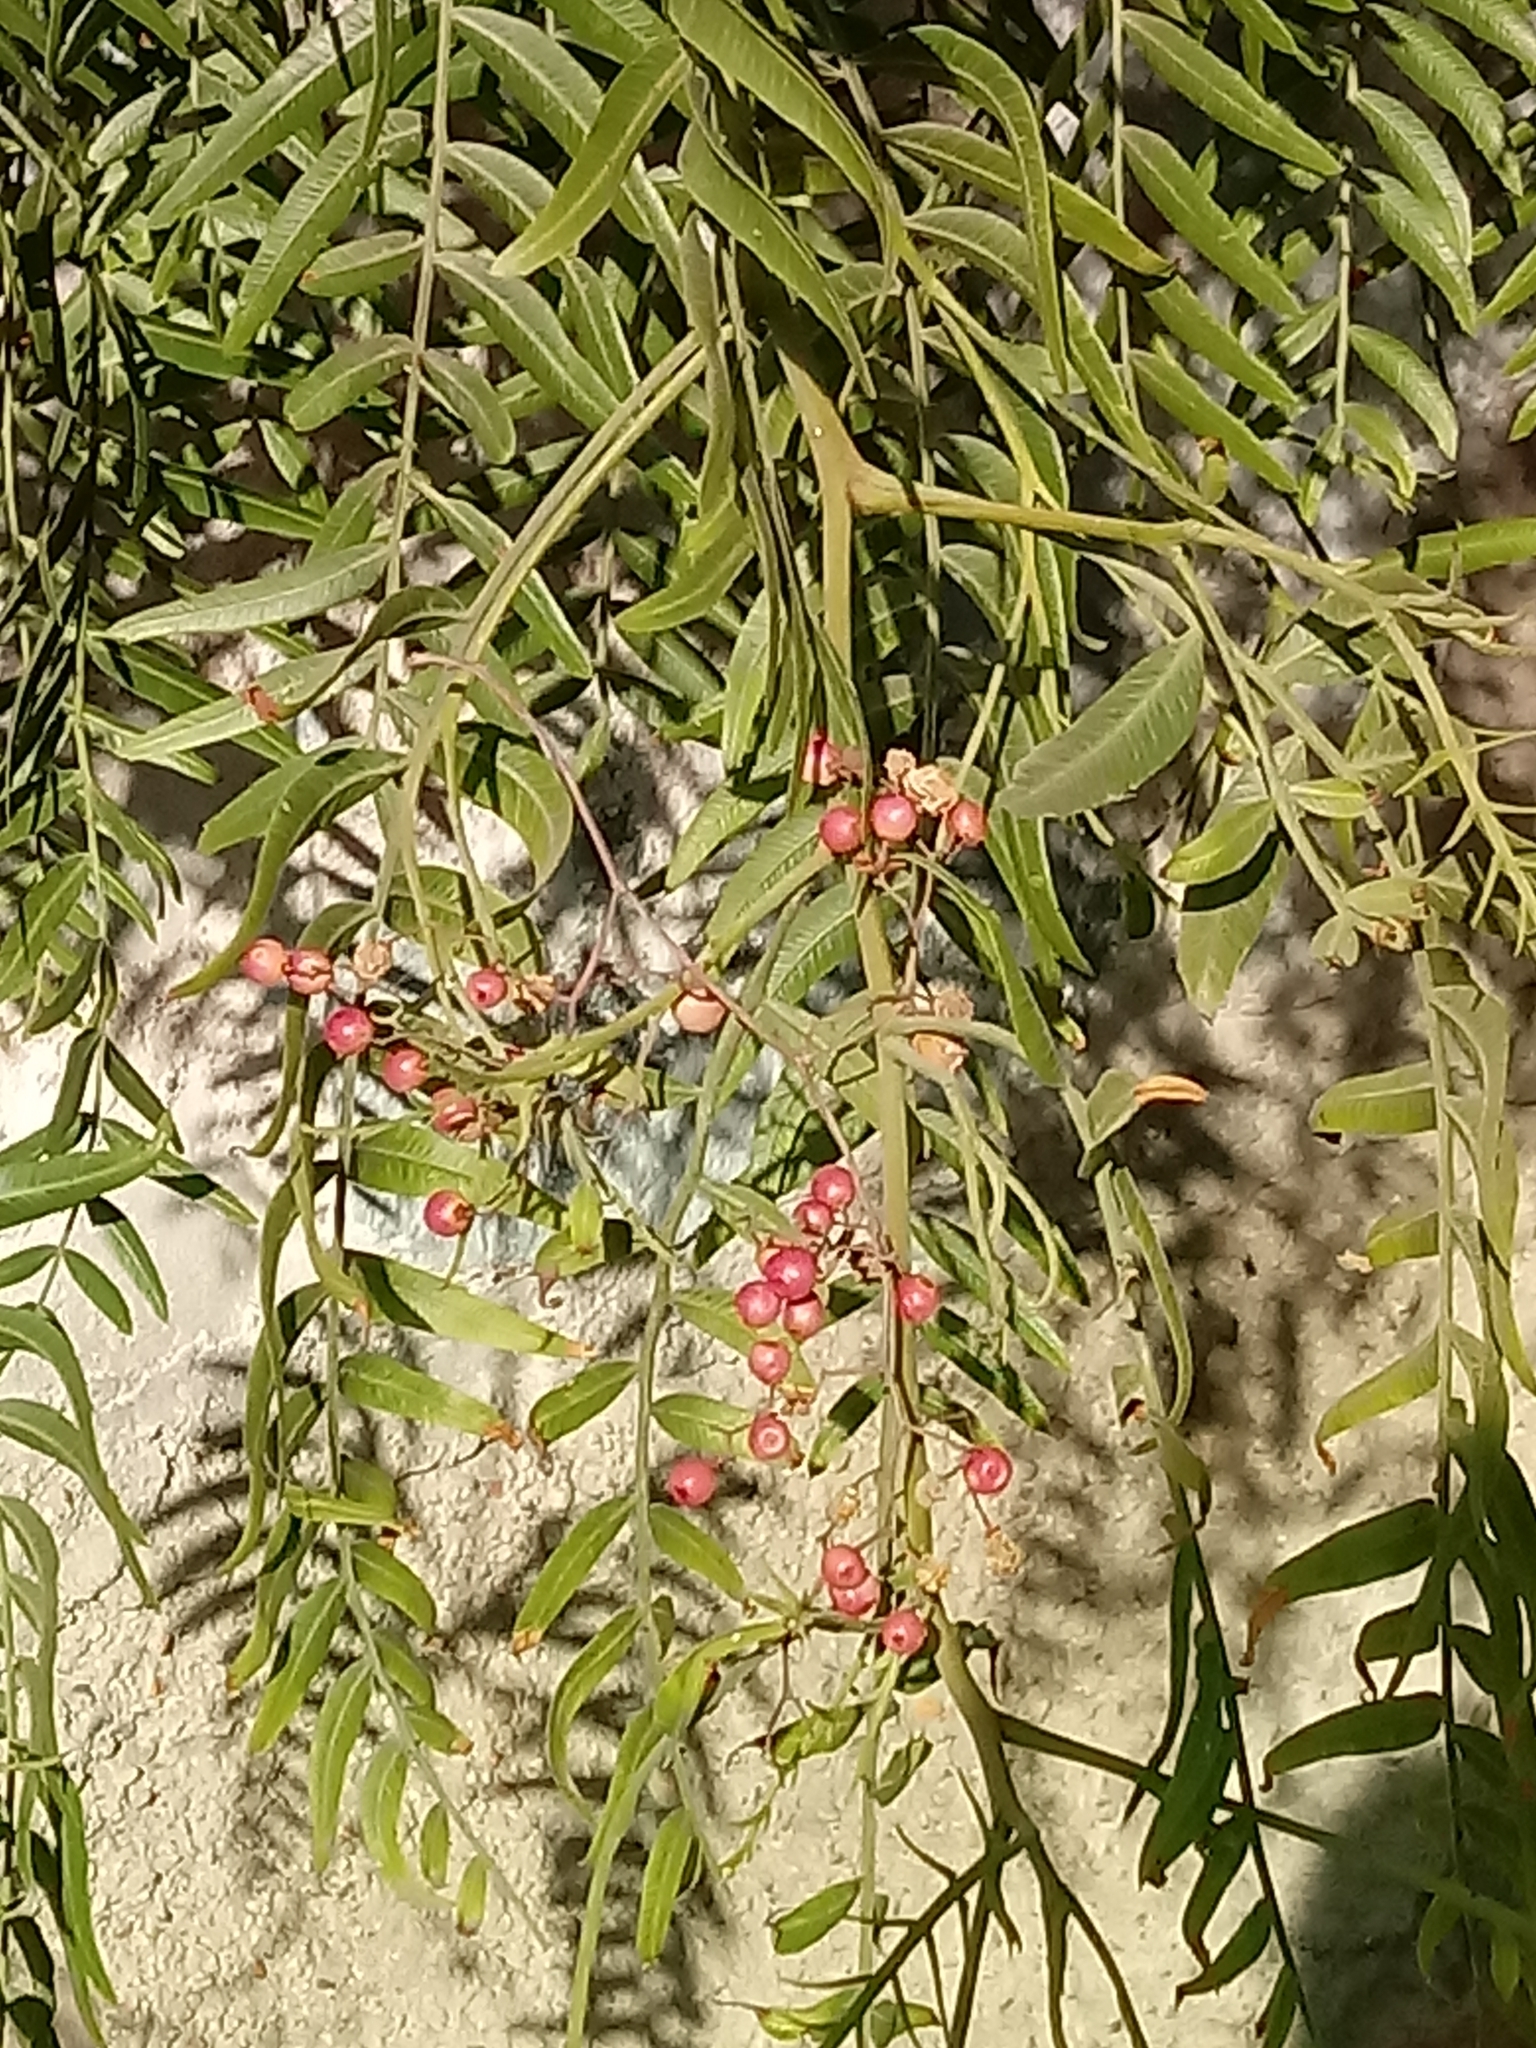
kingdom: Plantae
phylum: Tracheophyta
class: Magnoliopsida
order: Sapindales
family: Anacardiaceae
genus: Schinus
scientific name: Schinus molle
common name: Peruvian peppertree
